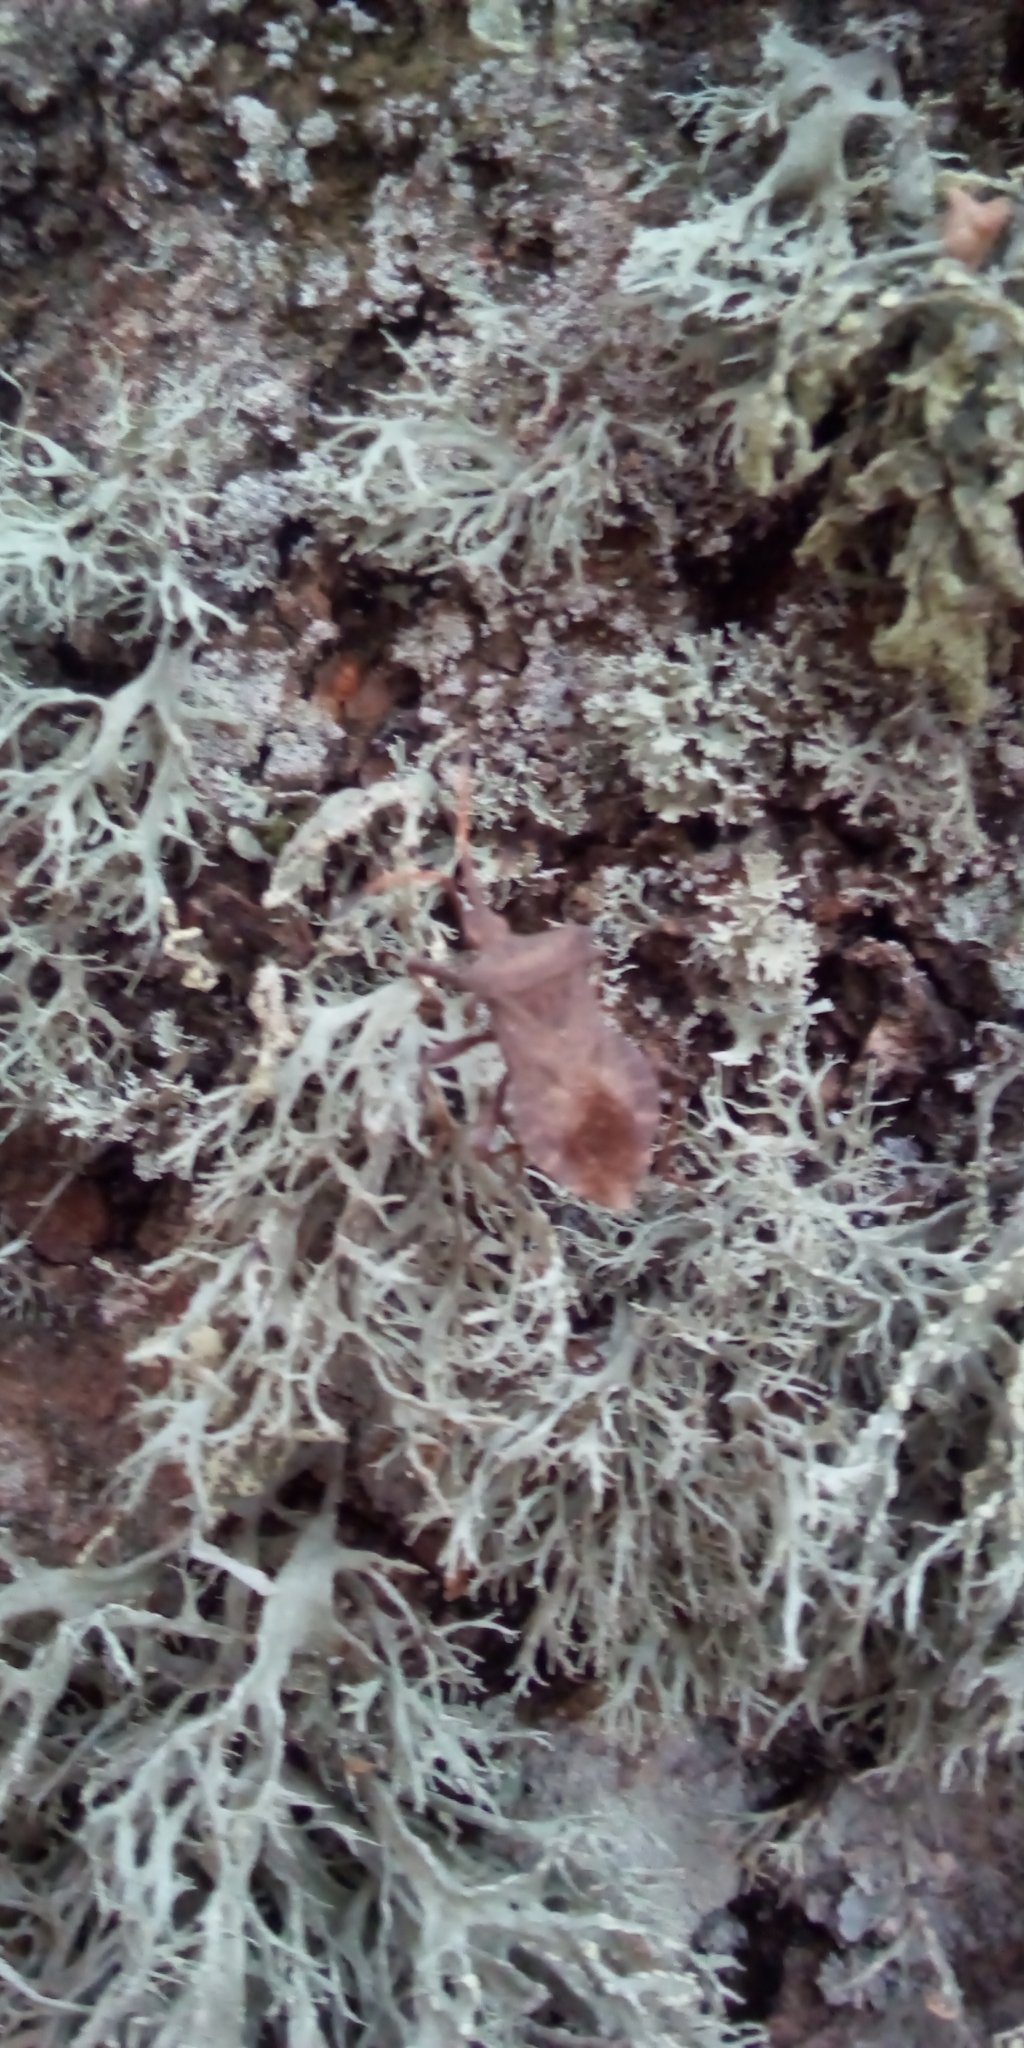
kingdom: Animalia
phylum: Arthropoda
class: Insecta
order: Hemiptera
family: Coreidae
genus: Coreus
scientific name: Coreus marginatus
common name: Dock bug
